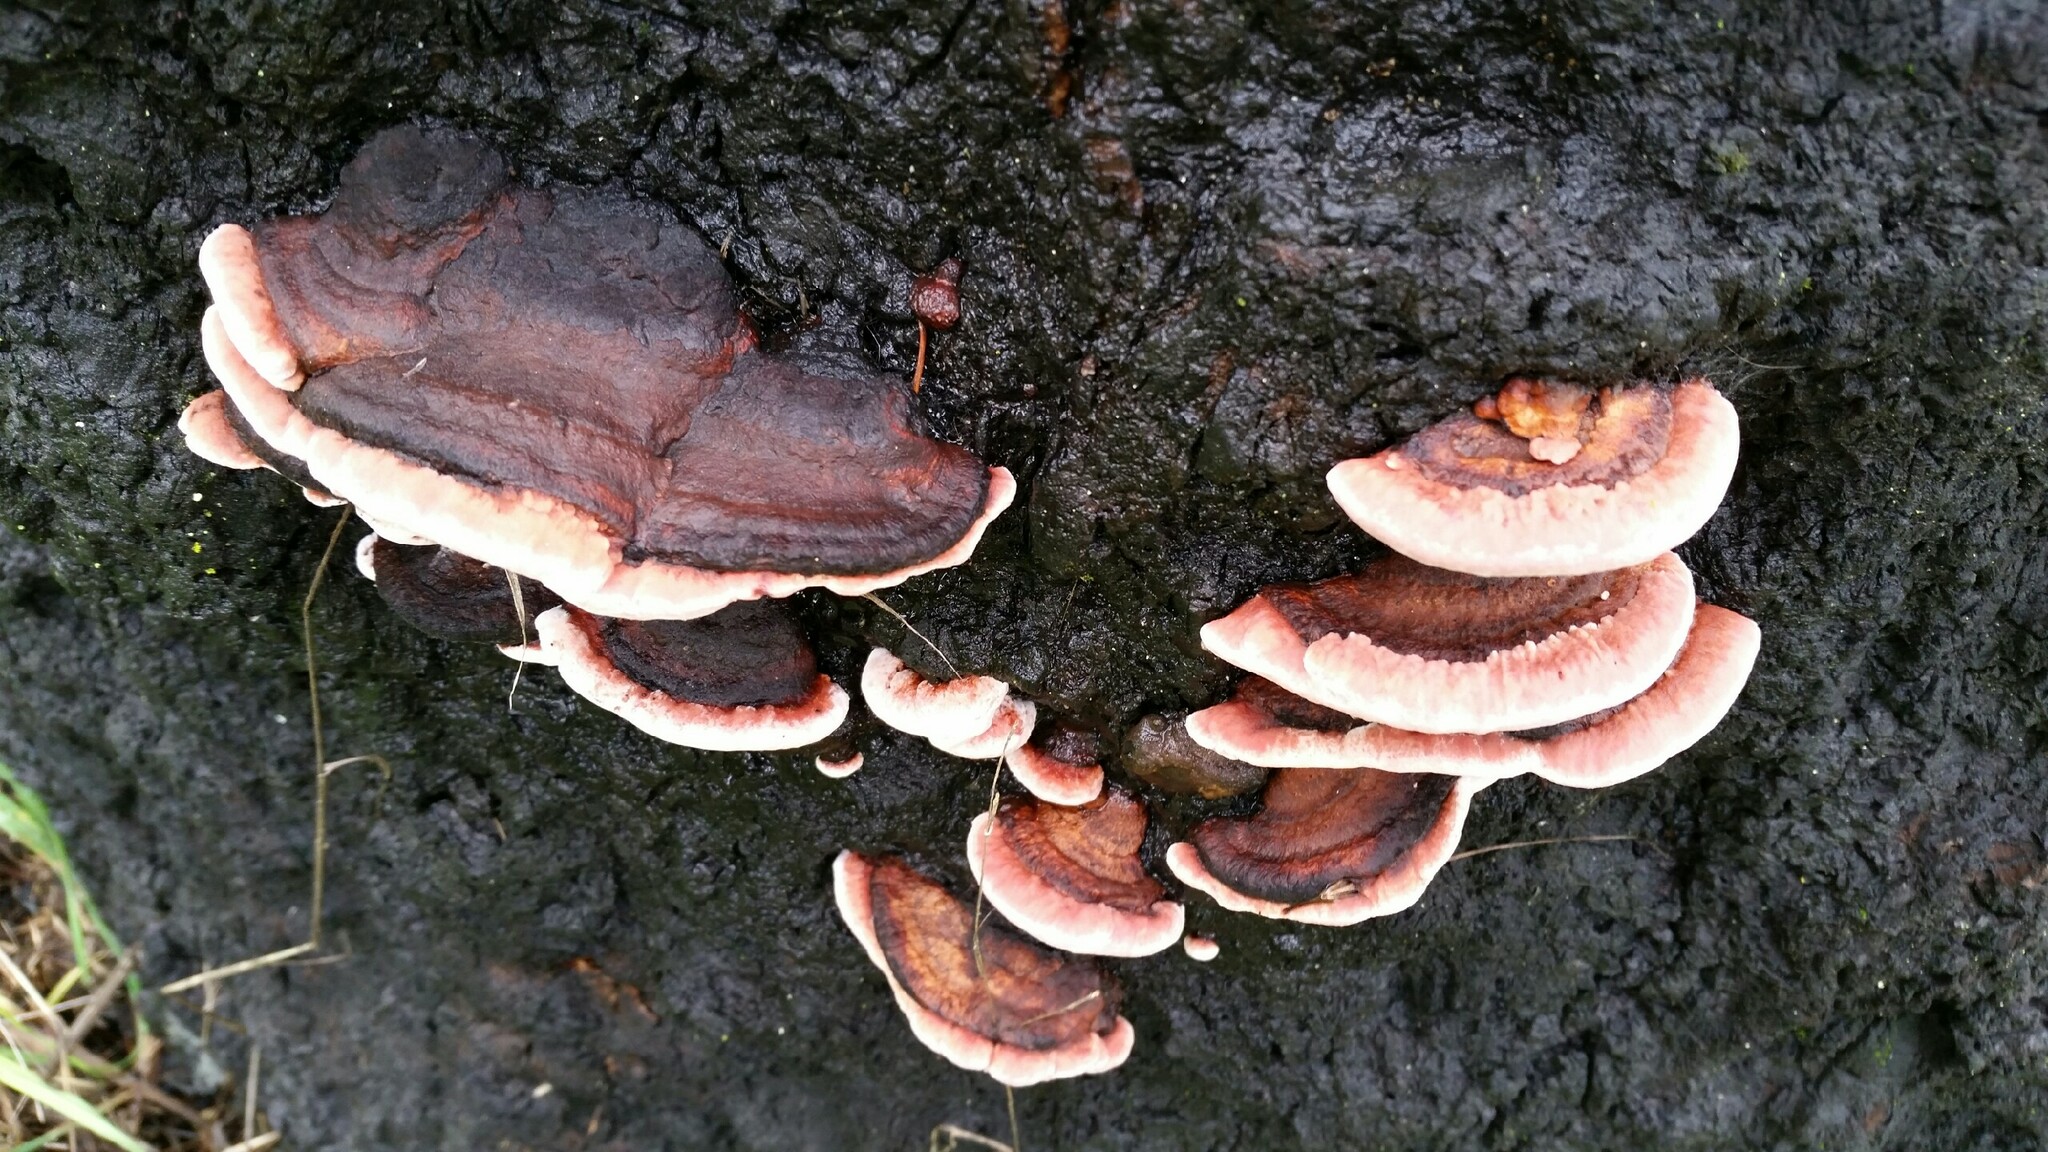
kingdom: Fungi
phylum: Basidiomycota
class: Agaricomycetes
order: Polyporales
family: Fomitopsidaceae
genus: Rhodofomes
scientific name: Rhodofomes cajanderi
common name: Rosy conk
